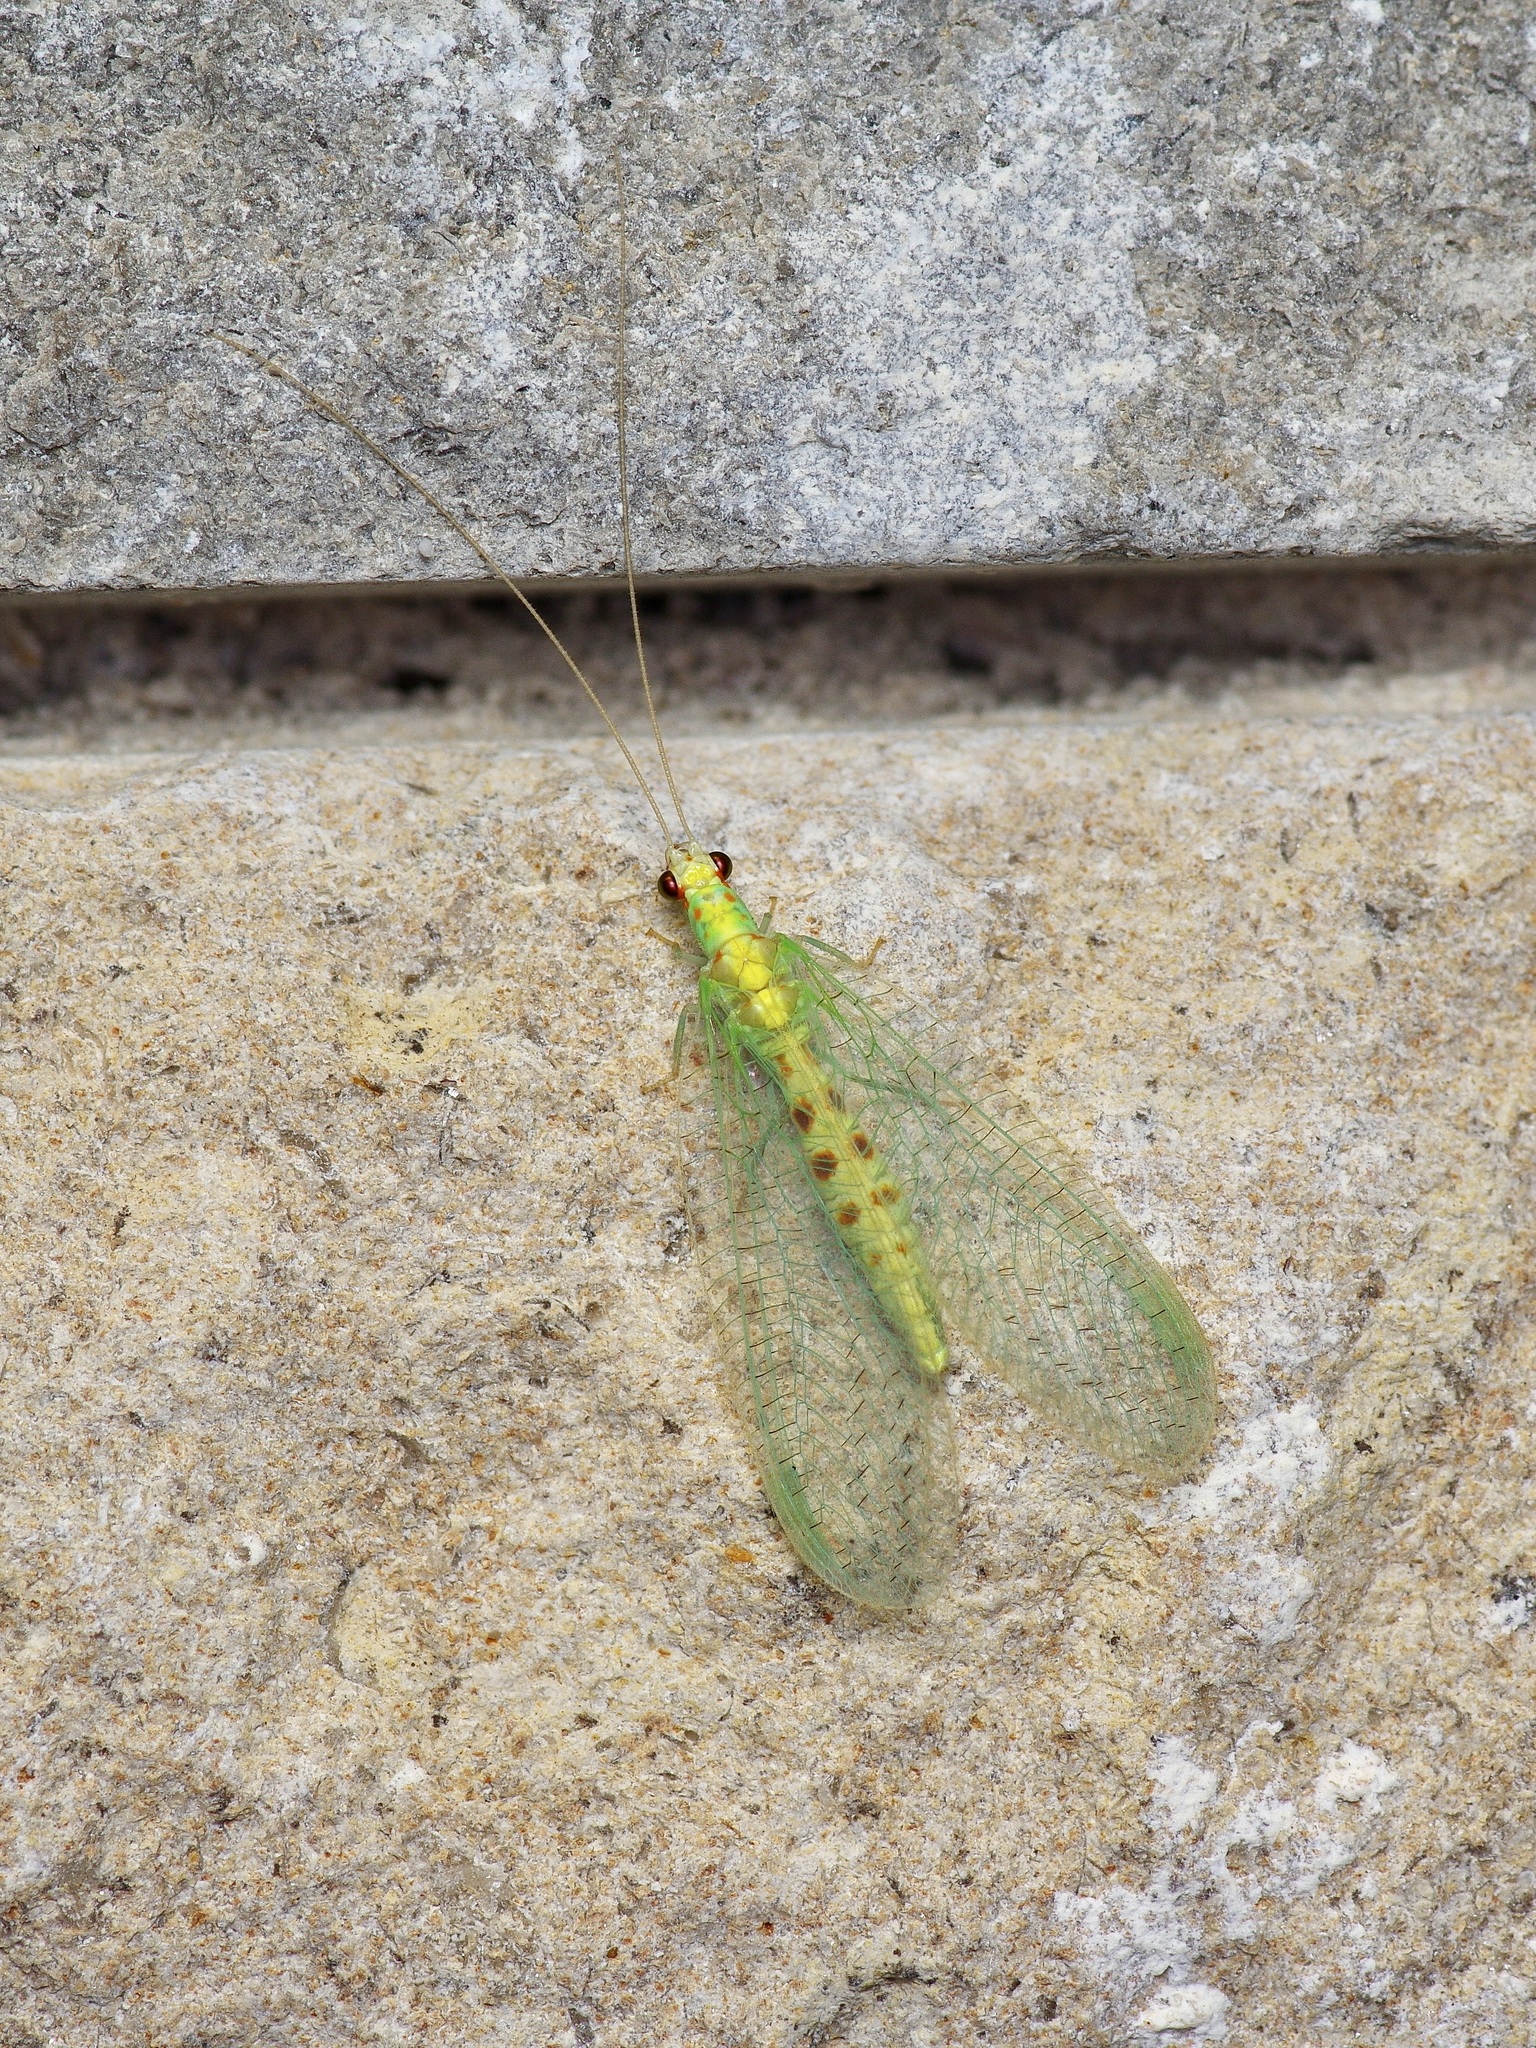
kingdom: Animalia
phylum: Arthropoda
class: Insecta
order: Neuroptera
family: Chrysopidae
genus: Chrysopa
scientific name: Chrysopa quadripunctata
